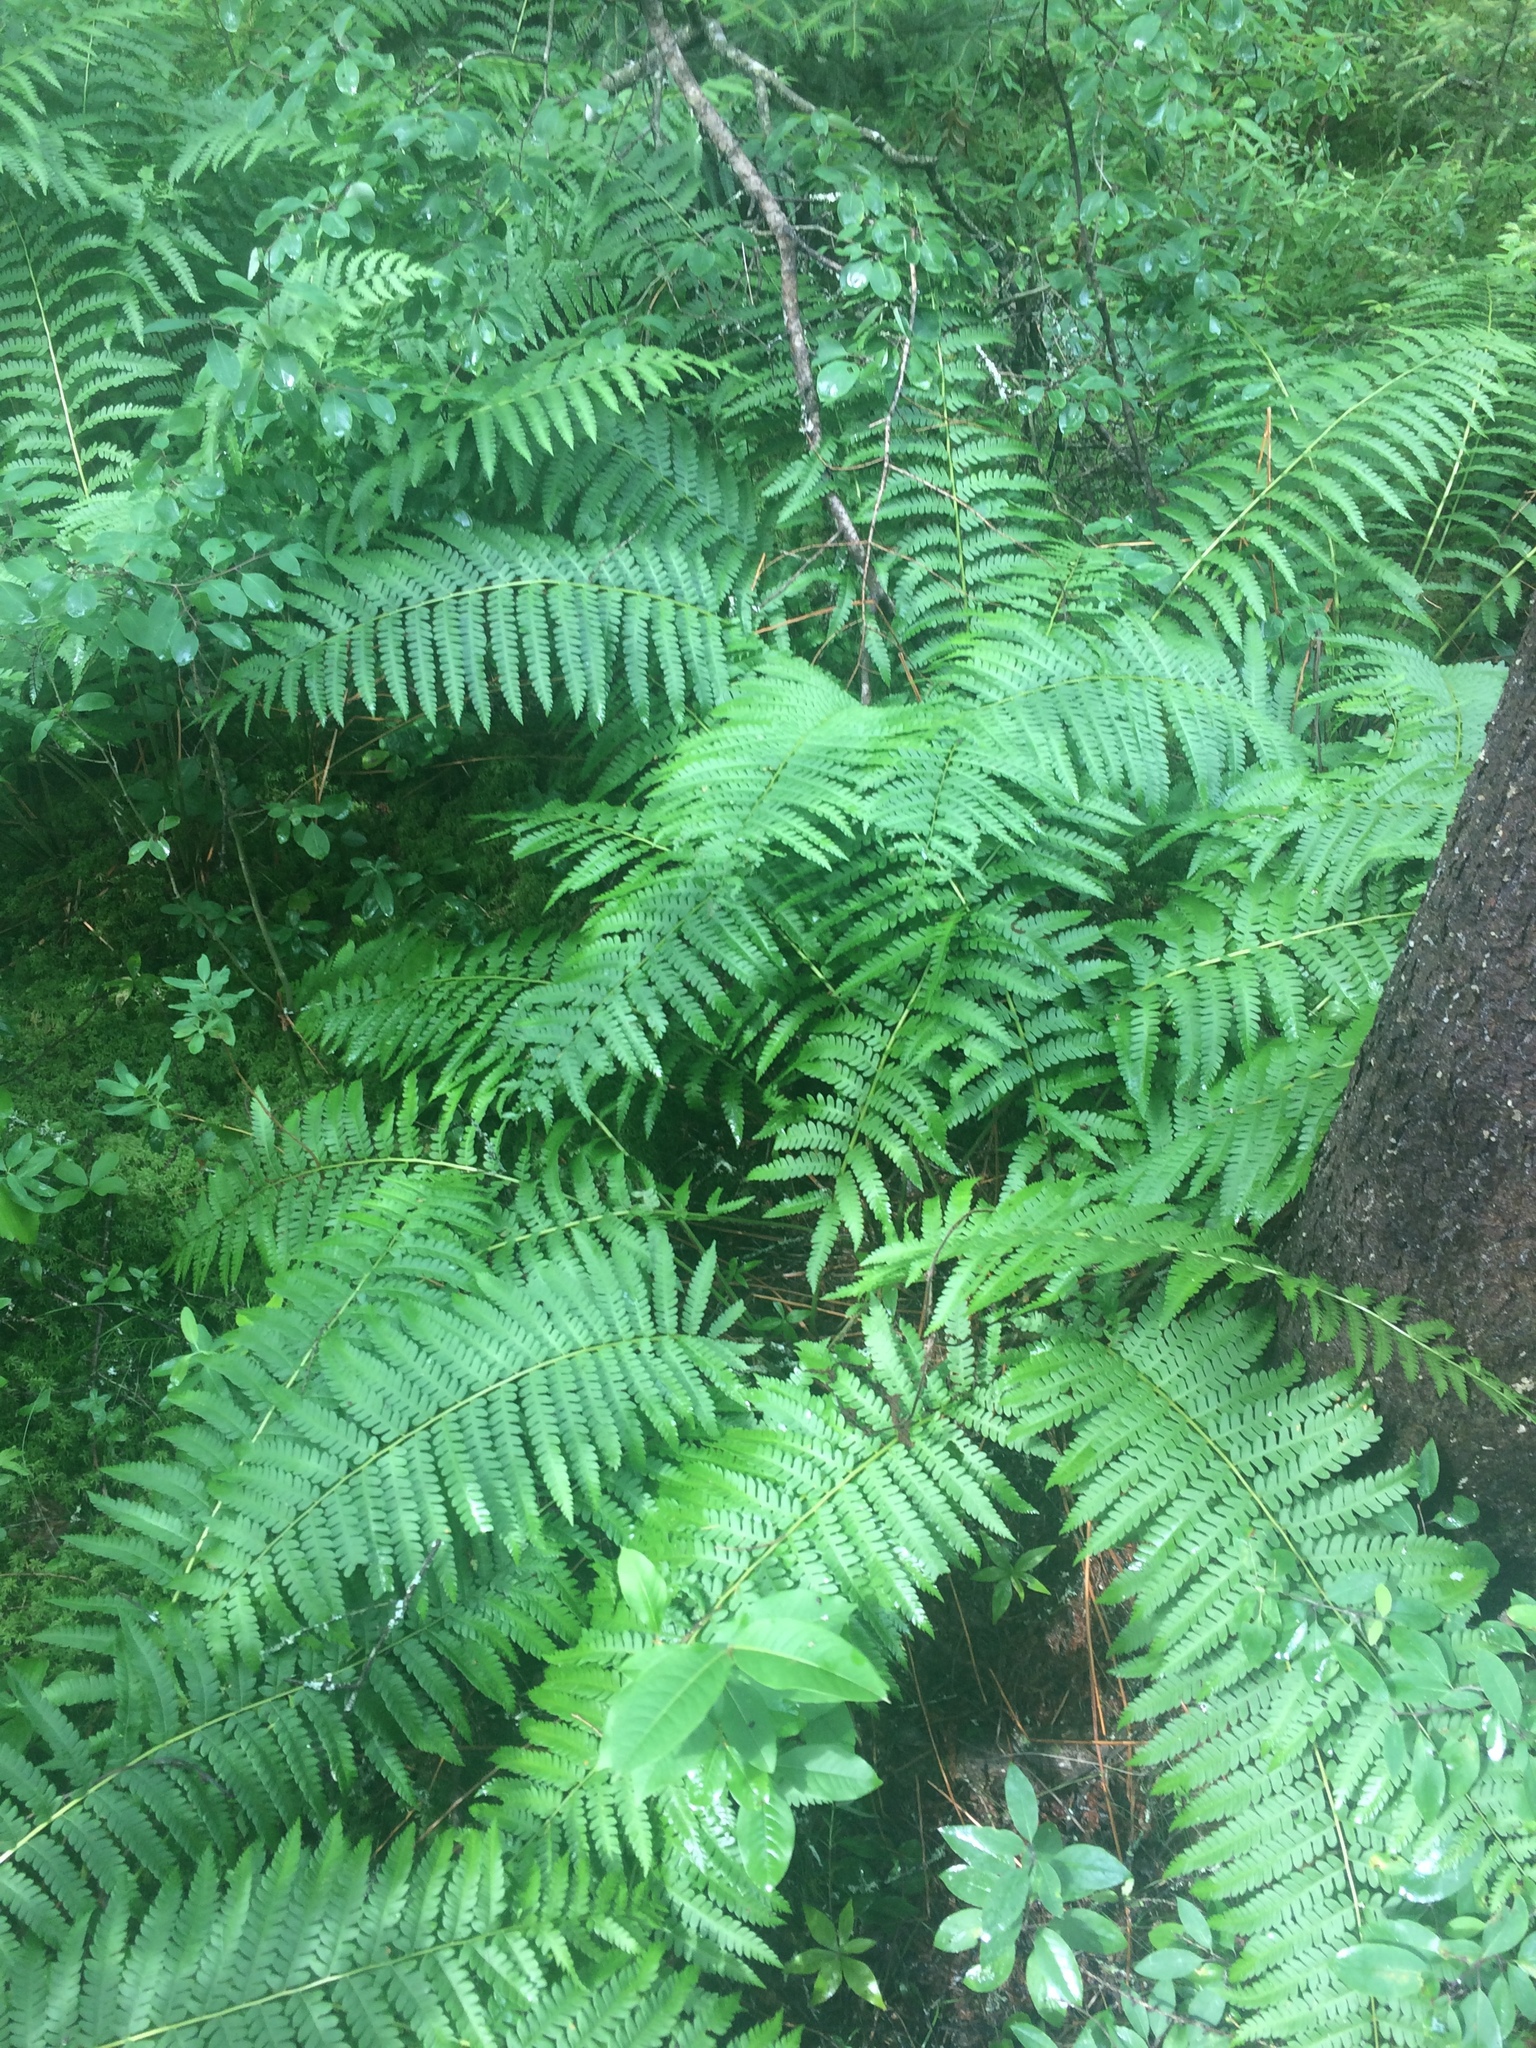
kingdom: Plantae
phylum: Tracheophyta
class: Polypodiopsida
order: Osmundales
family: Osmundaceae
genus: Osmundastrum
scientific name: Osmundastrum cinnamomeum
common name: Cinnamon fern
